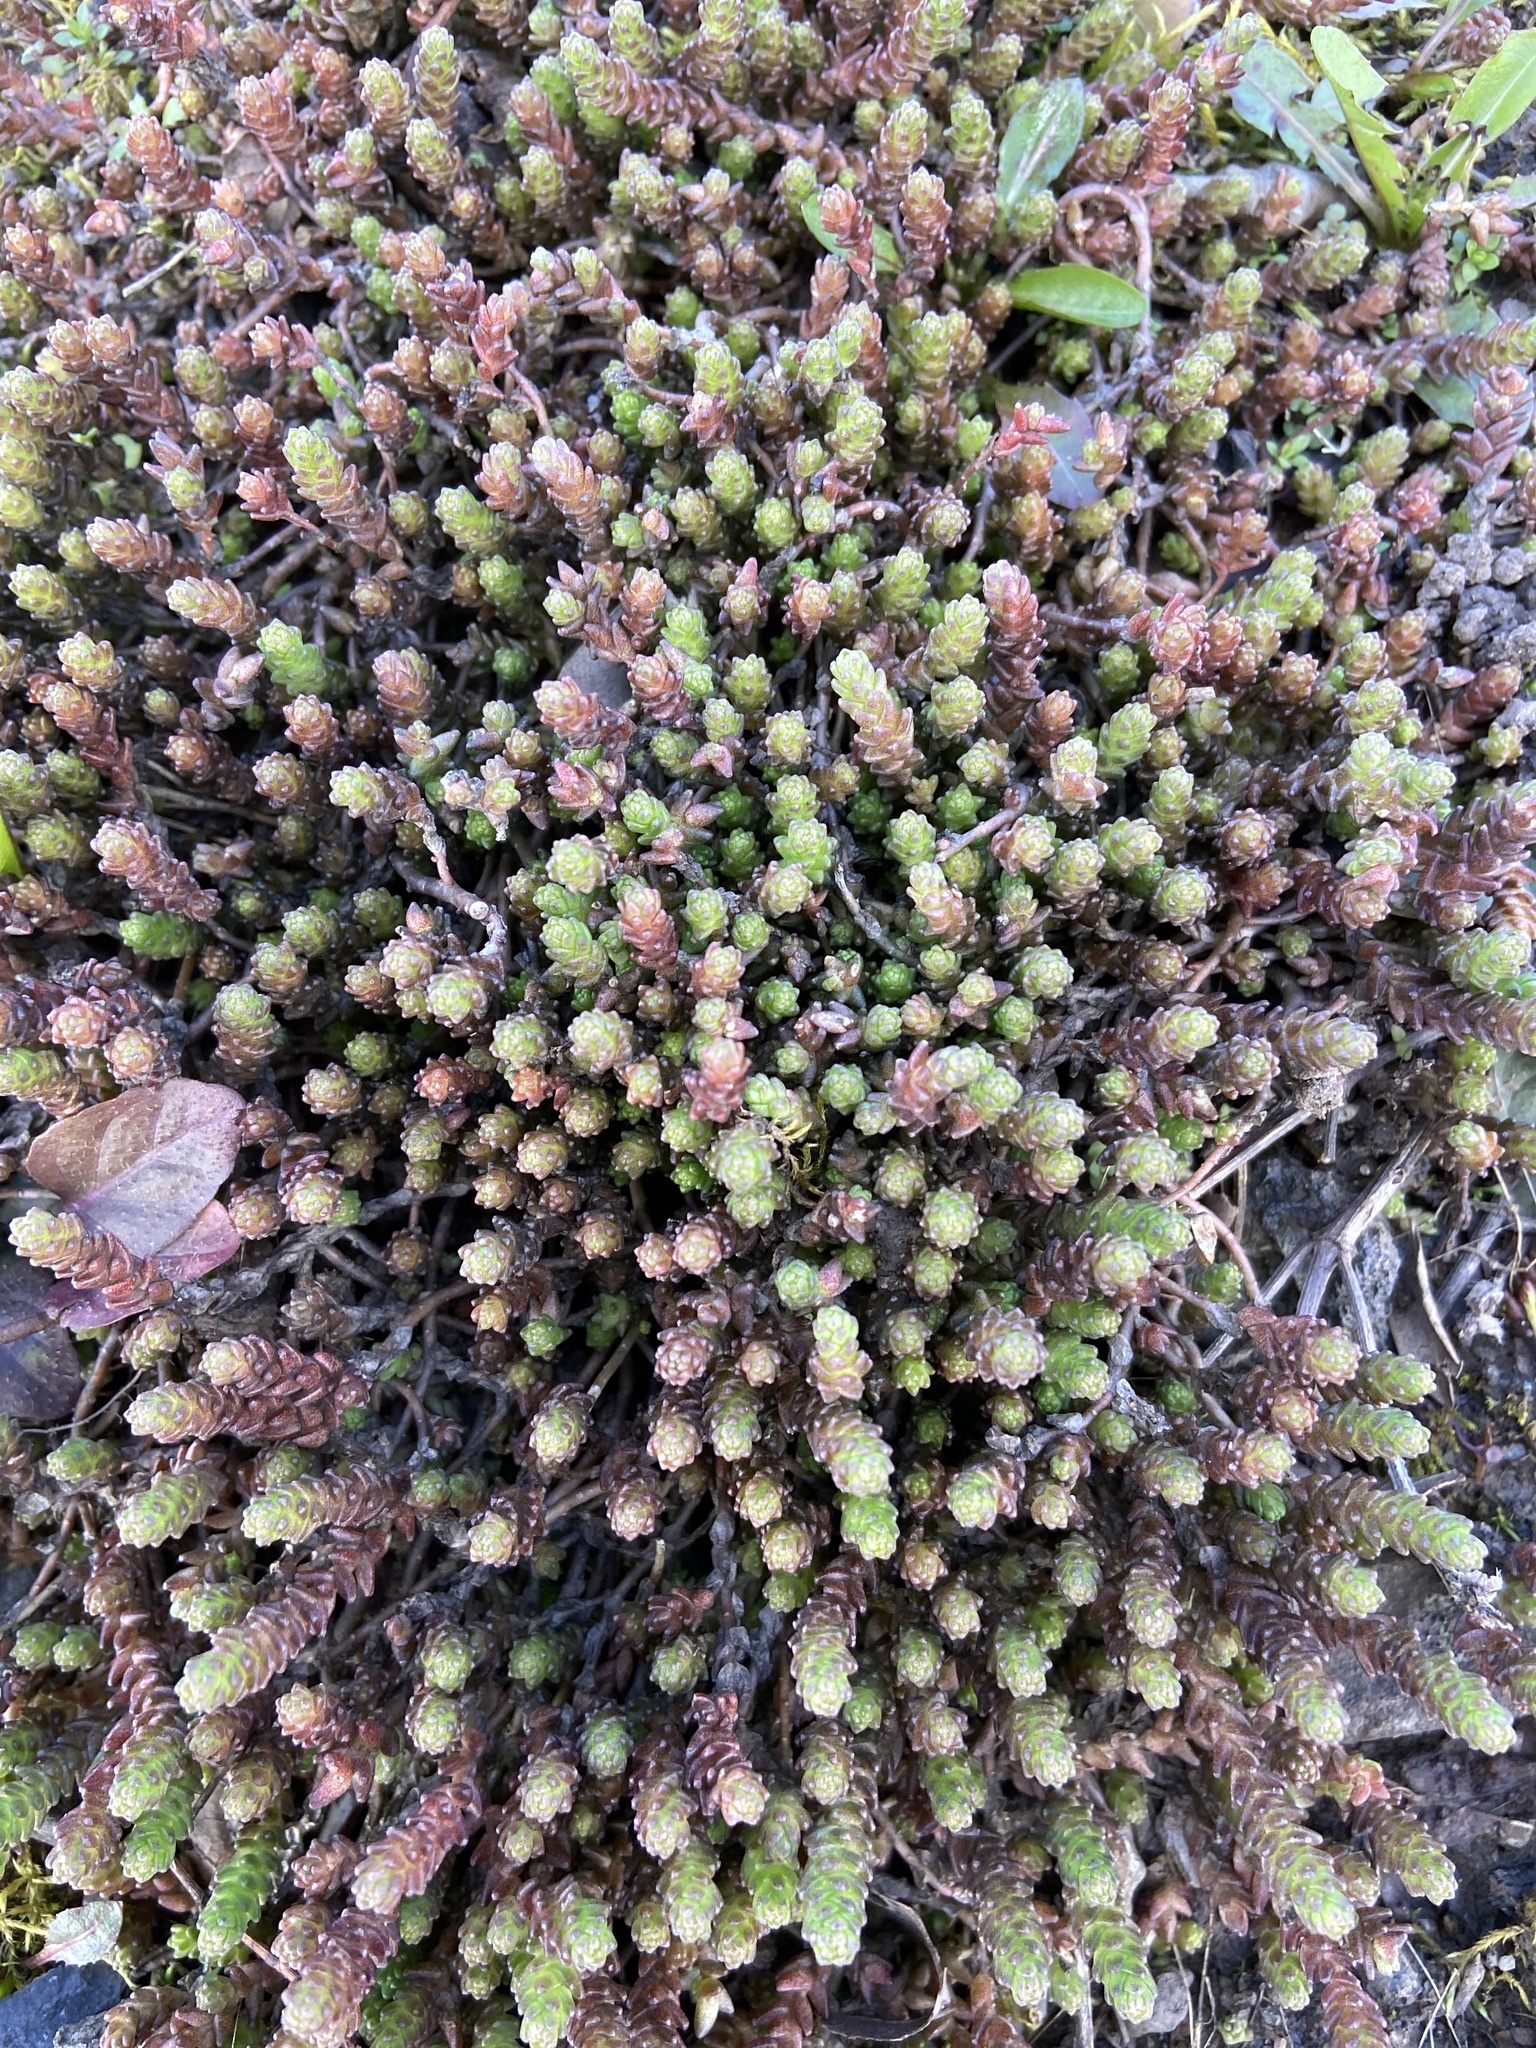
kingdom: Plantae
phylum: Tracheophyta
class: Magnoliopsida
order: Saxifragales
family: Crassulaceae
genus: Sedum
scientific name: Sedum acre
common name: Biting stonecrop
